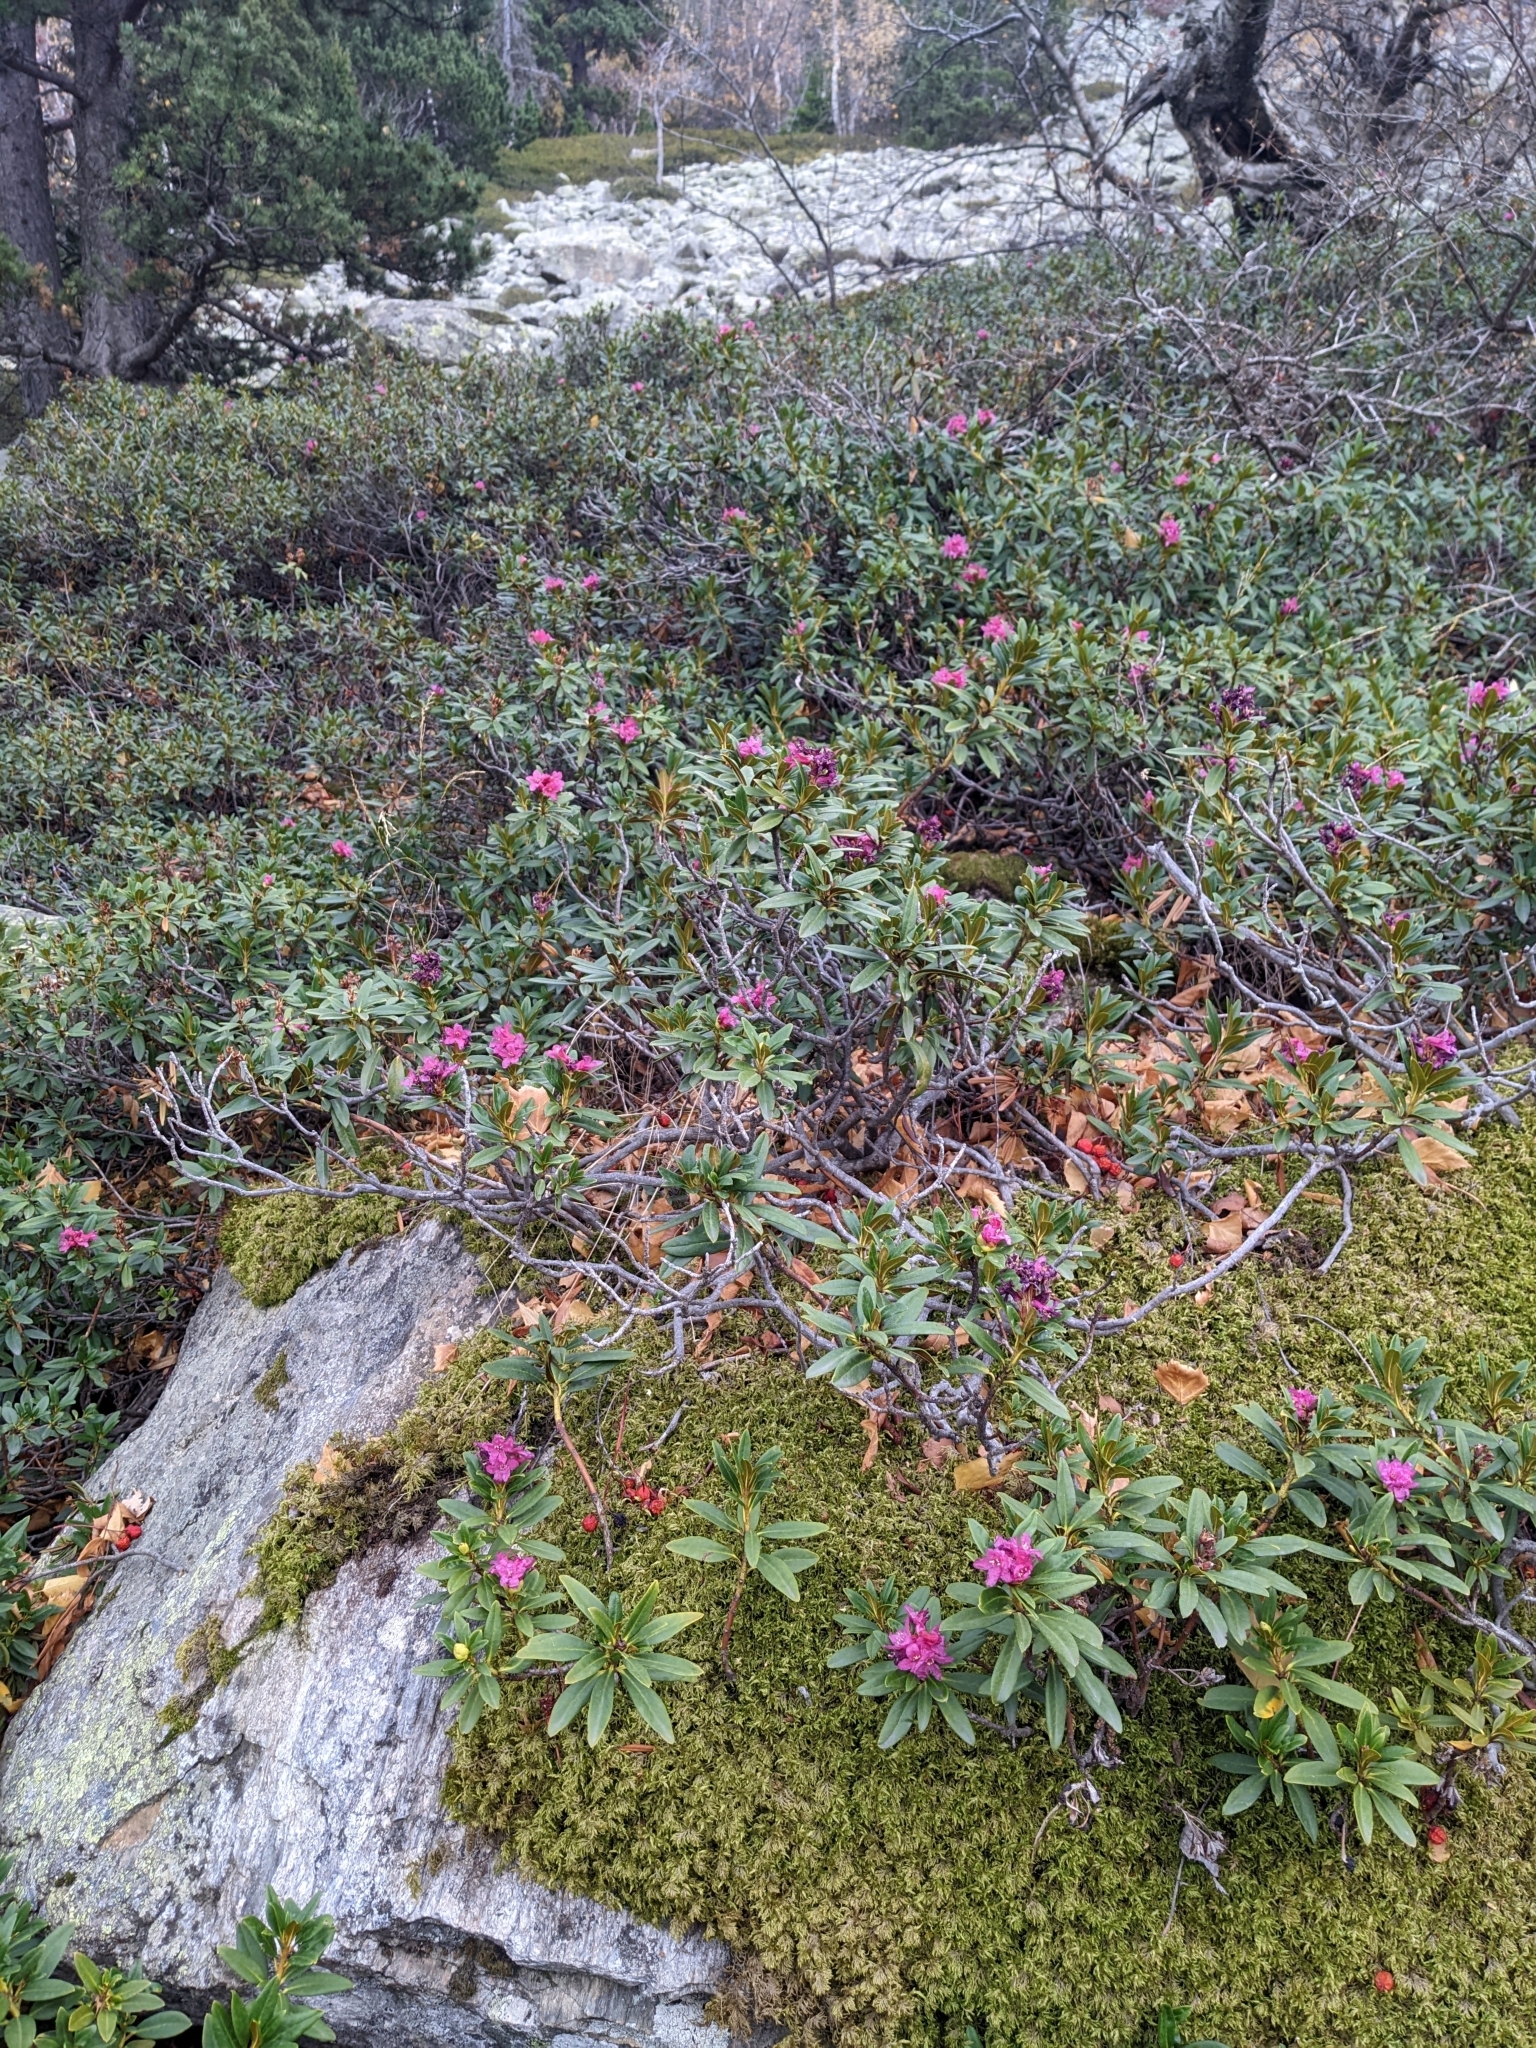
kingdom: Plantae
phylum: Tracheophyta
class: Magnoliopsida
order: Ericales
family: Ericaceae
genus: Rhododendron
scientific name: Rhododendron ferrugineum
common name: Alpenrose
